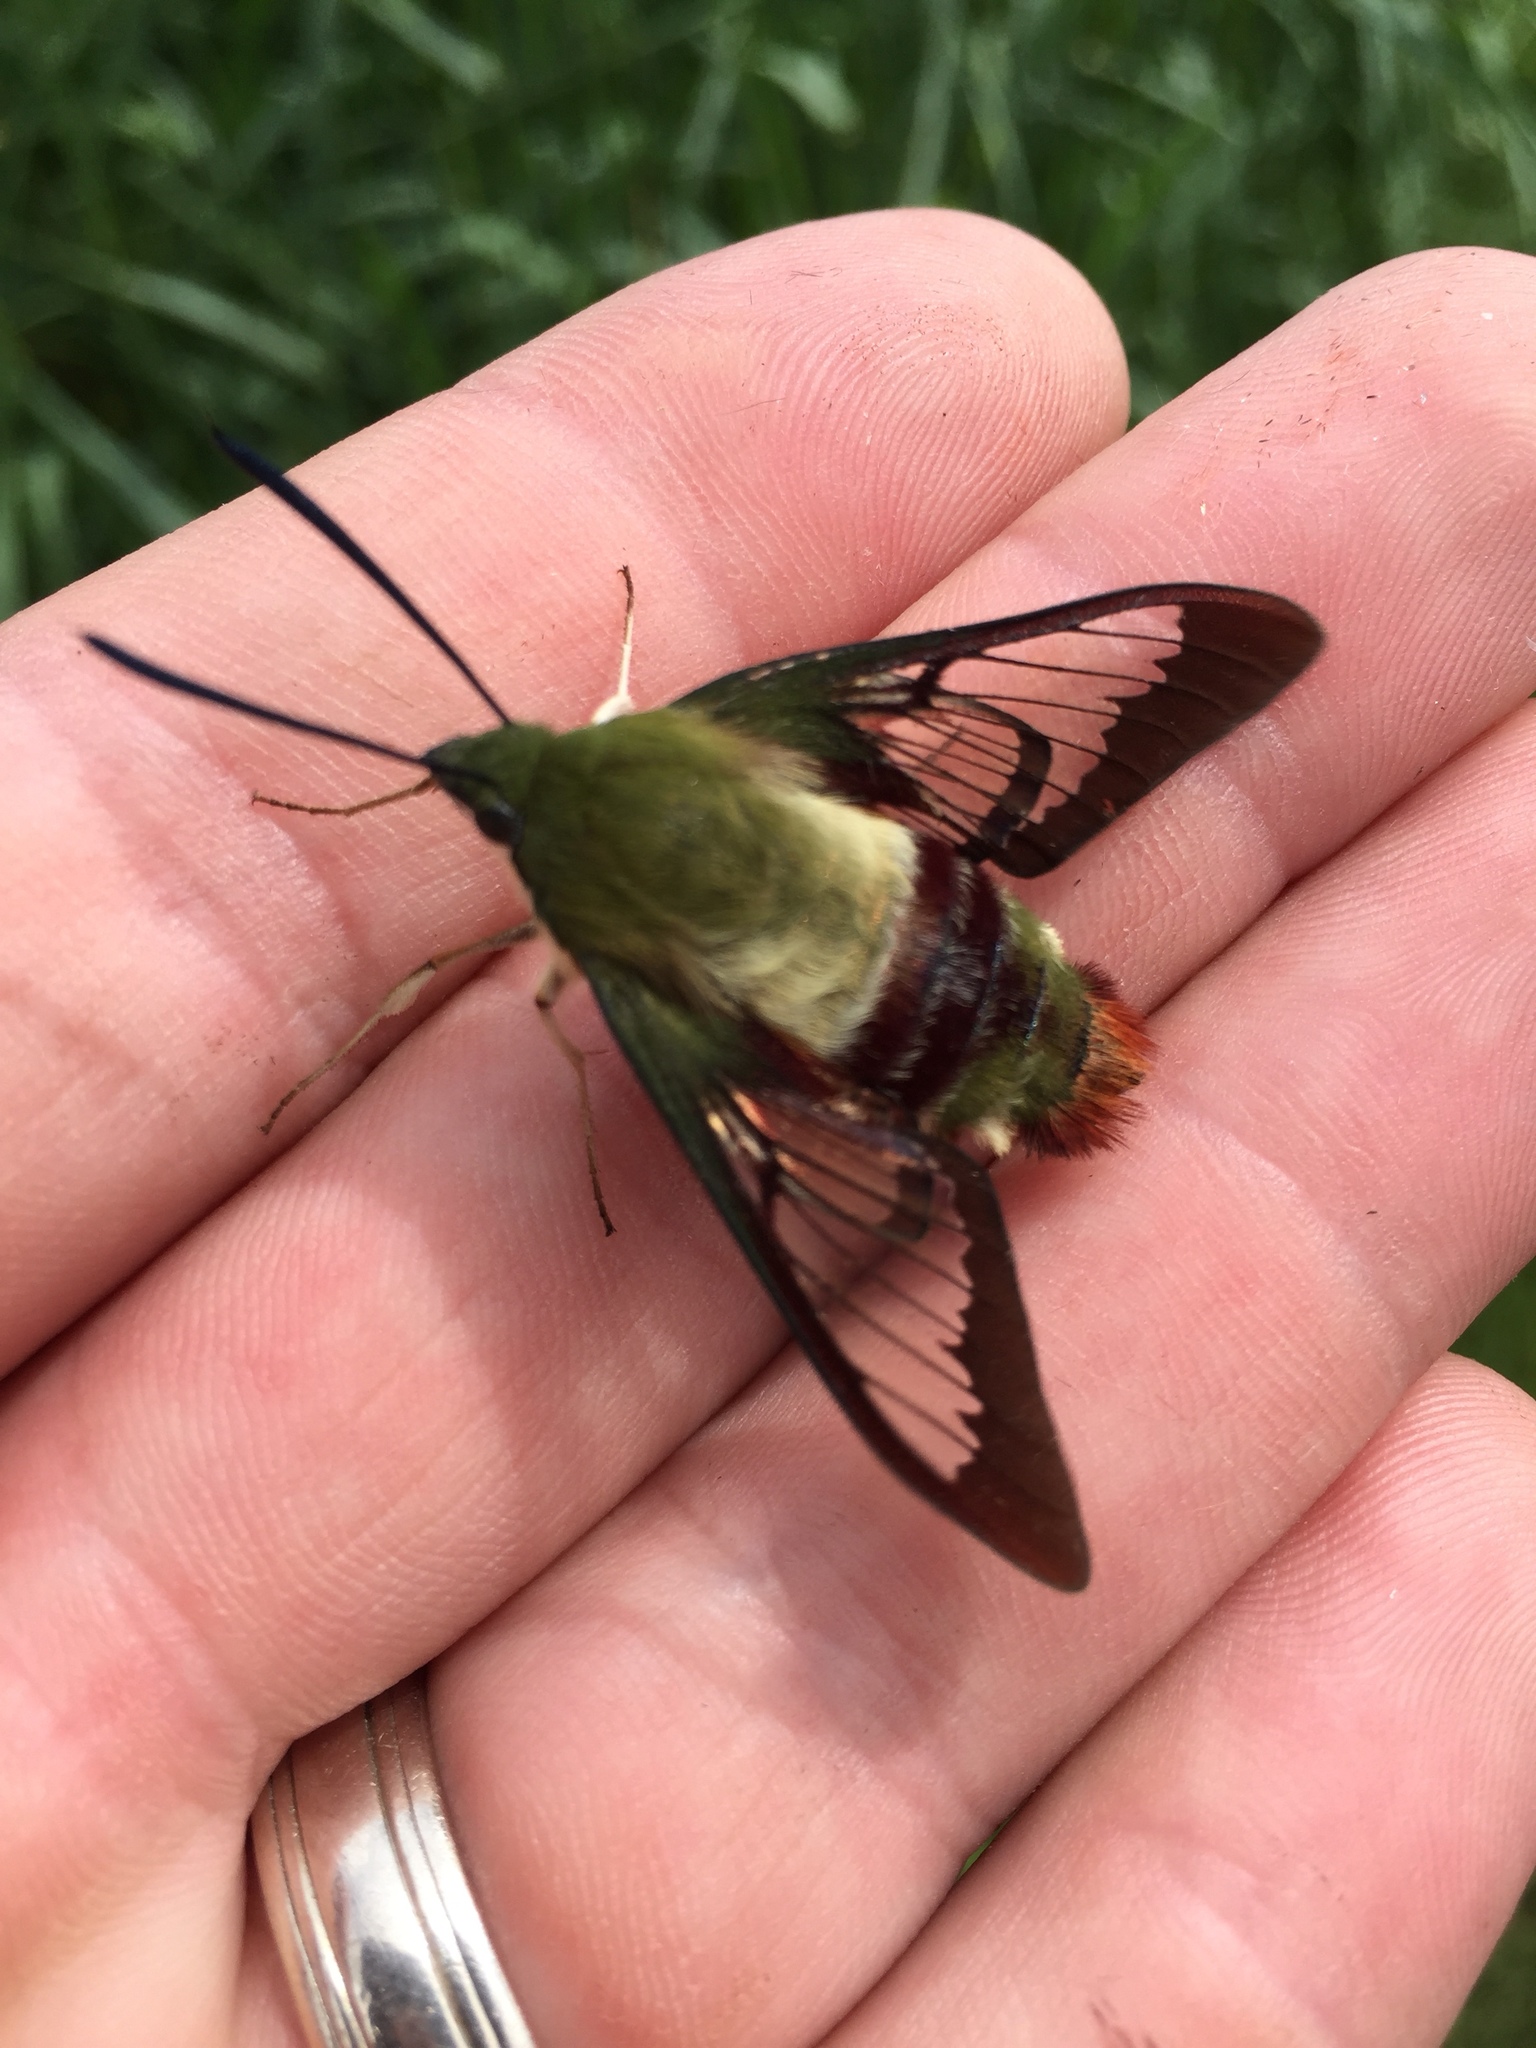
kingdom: Animalia
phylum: Arthropoda
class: Insecta
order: Lepidoptera
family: Sphingidae
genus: Hemaris
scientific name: Hemaris thysbe
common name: Common clear-wing
